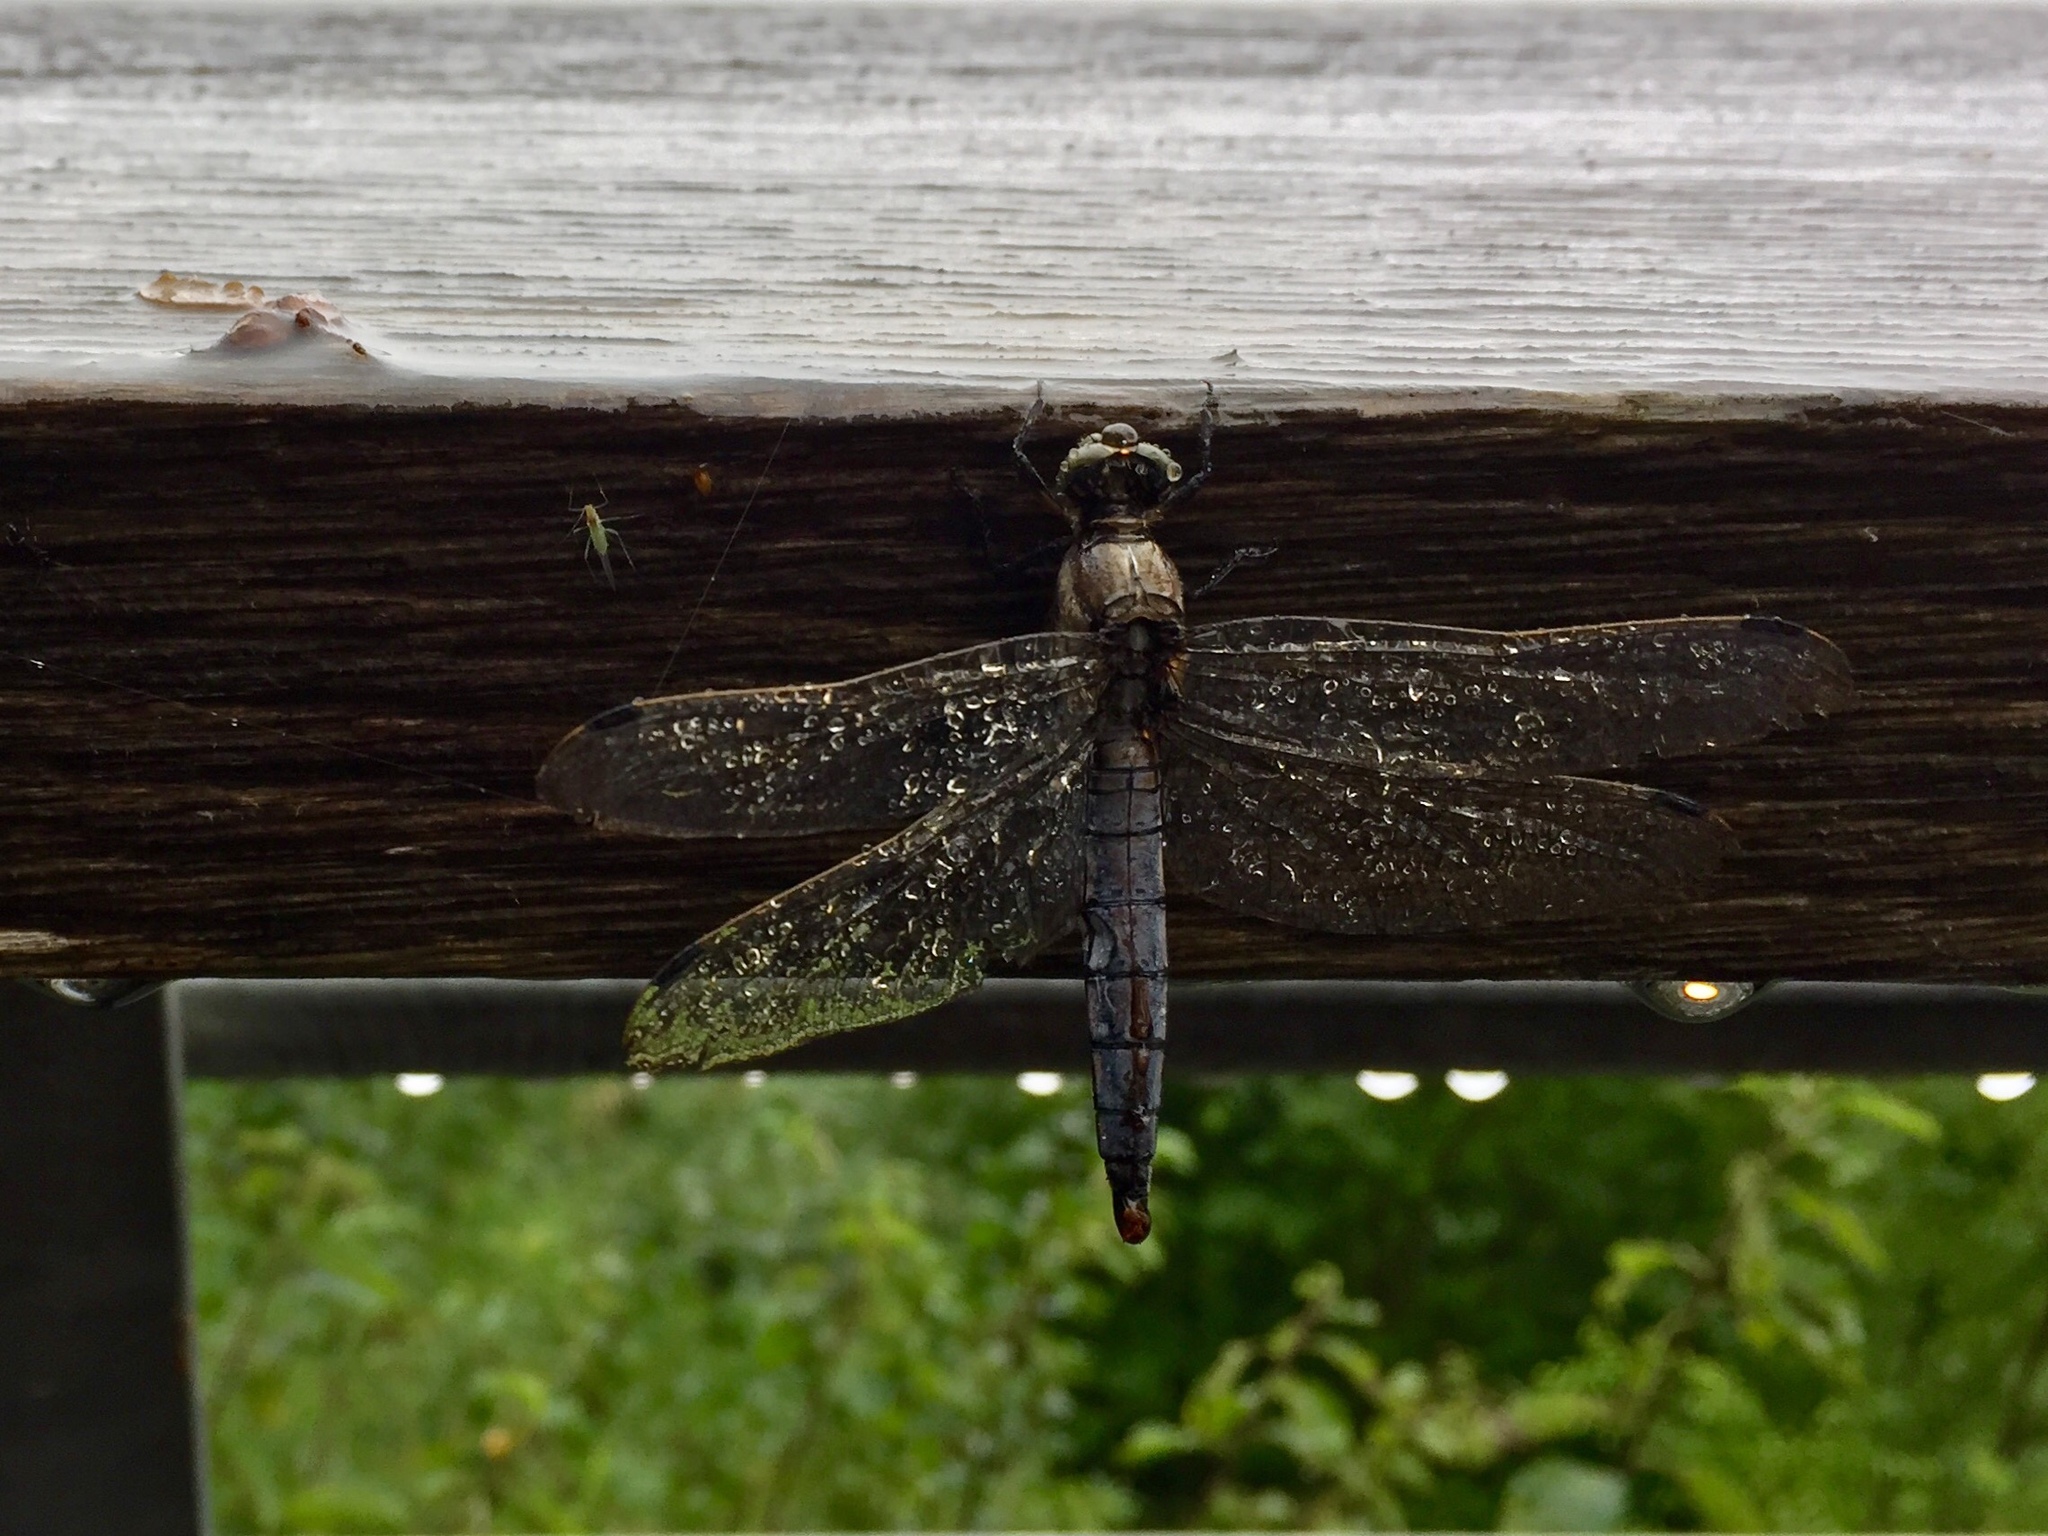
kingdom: Animalia
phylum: Arthropoda
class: Insecta
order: Odonata
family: Libellulidae
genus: Orthetrum
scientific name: Orthetrum cancellatum
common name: Black-tailed skimmer
